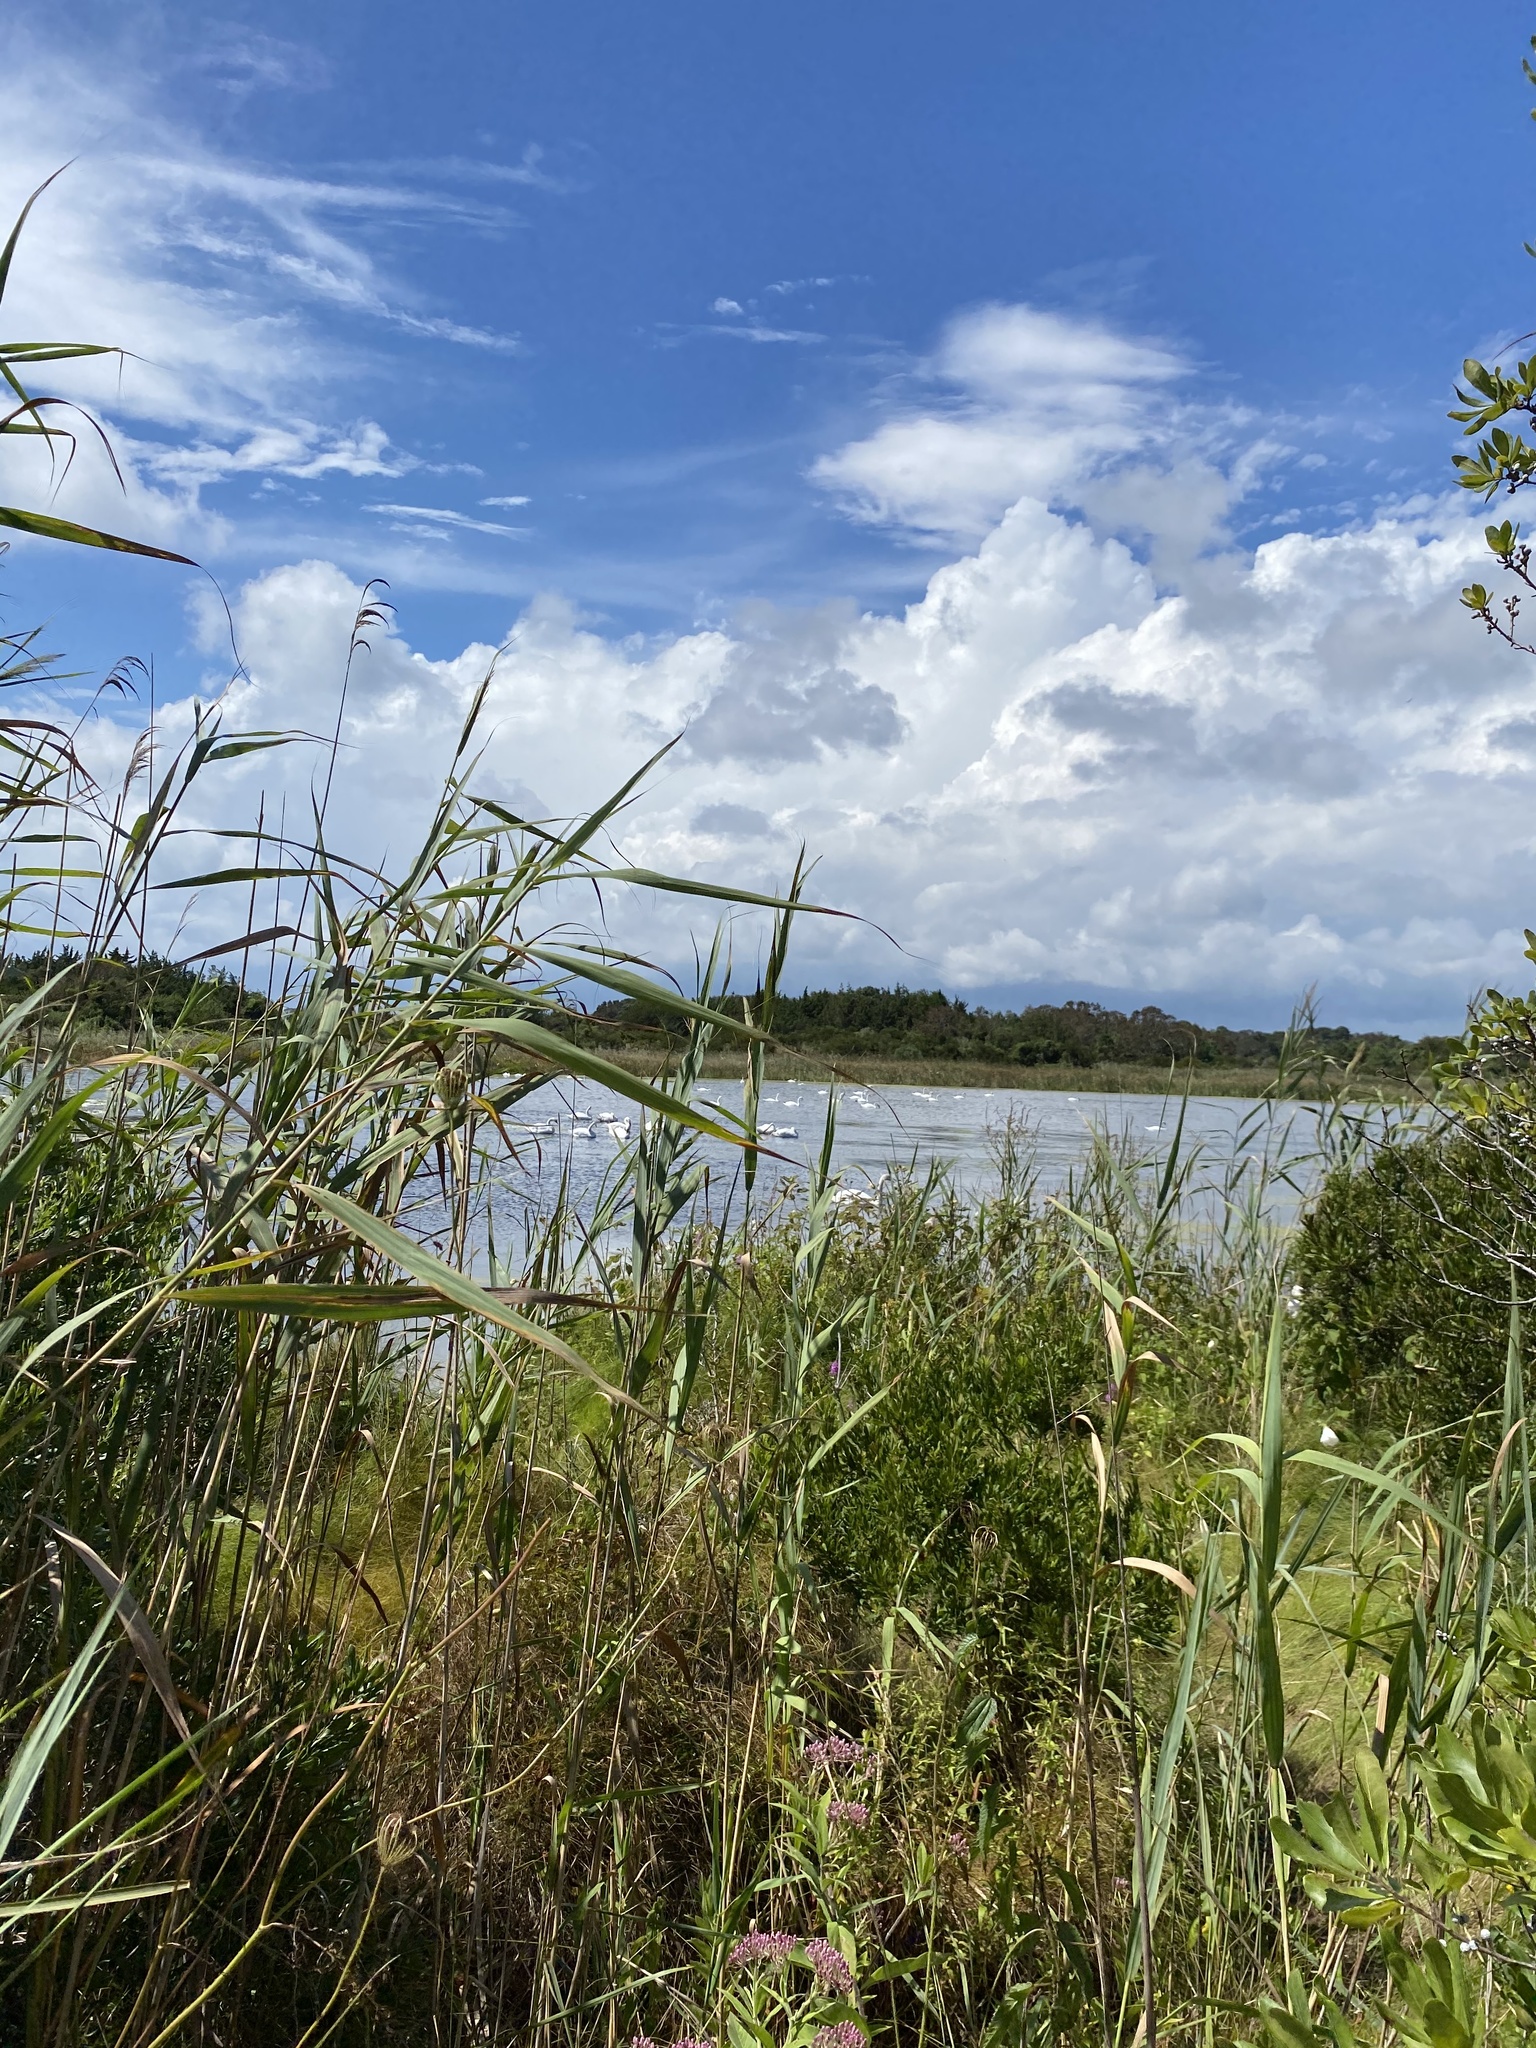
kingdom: Plantae
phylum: Tracheophyta
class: Liliopsida
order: Poales
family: Poaceae
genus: Phragmites
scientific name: Phragmites australis
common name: Common reed
